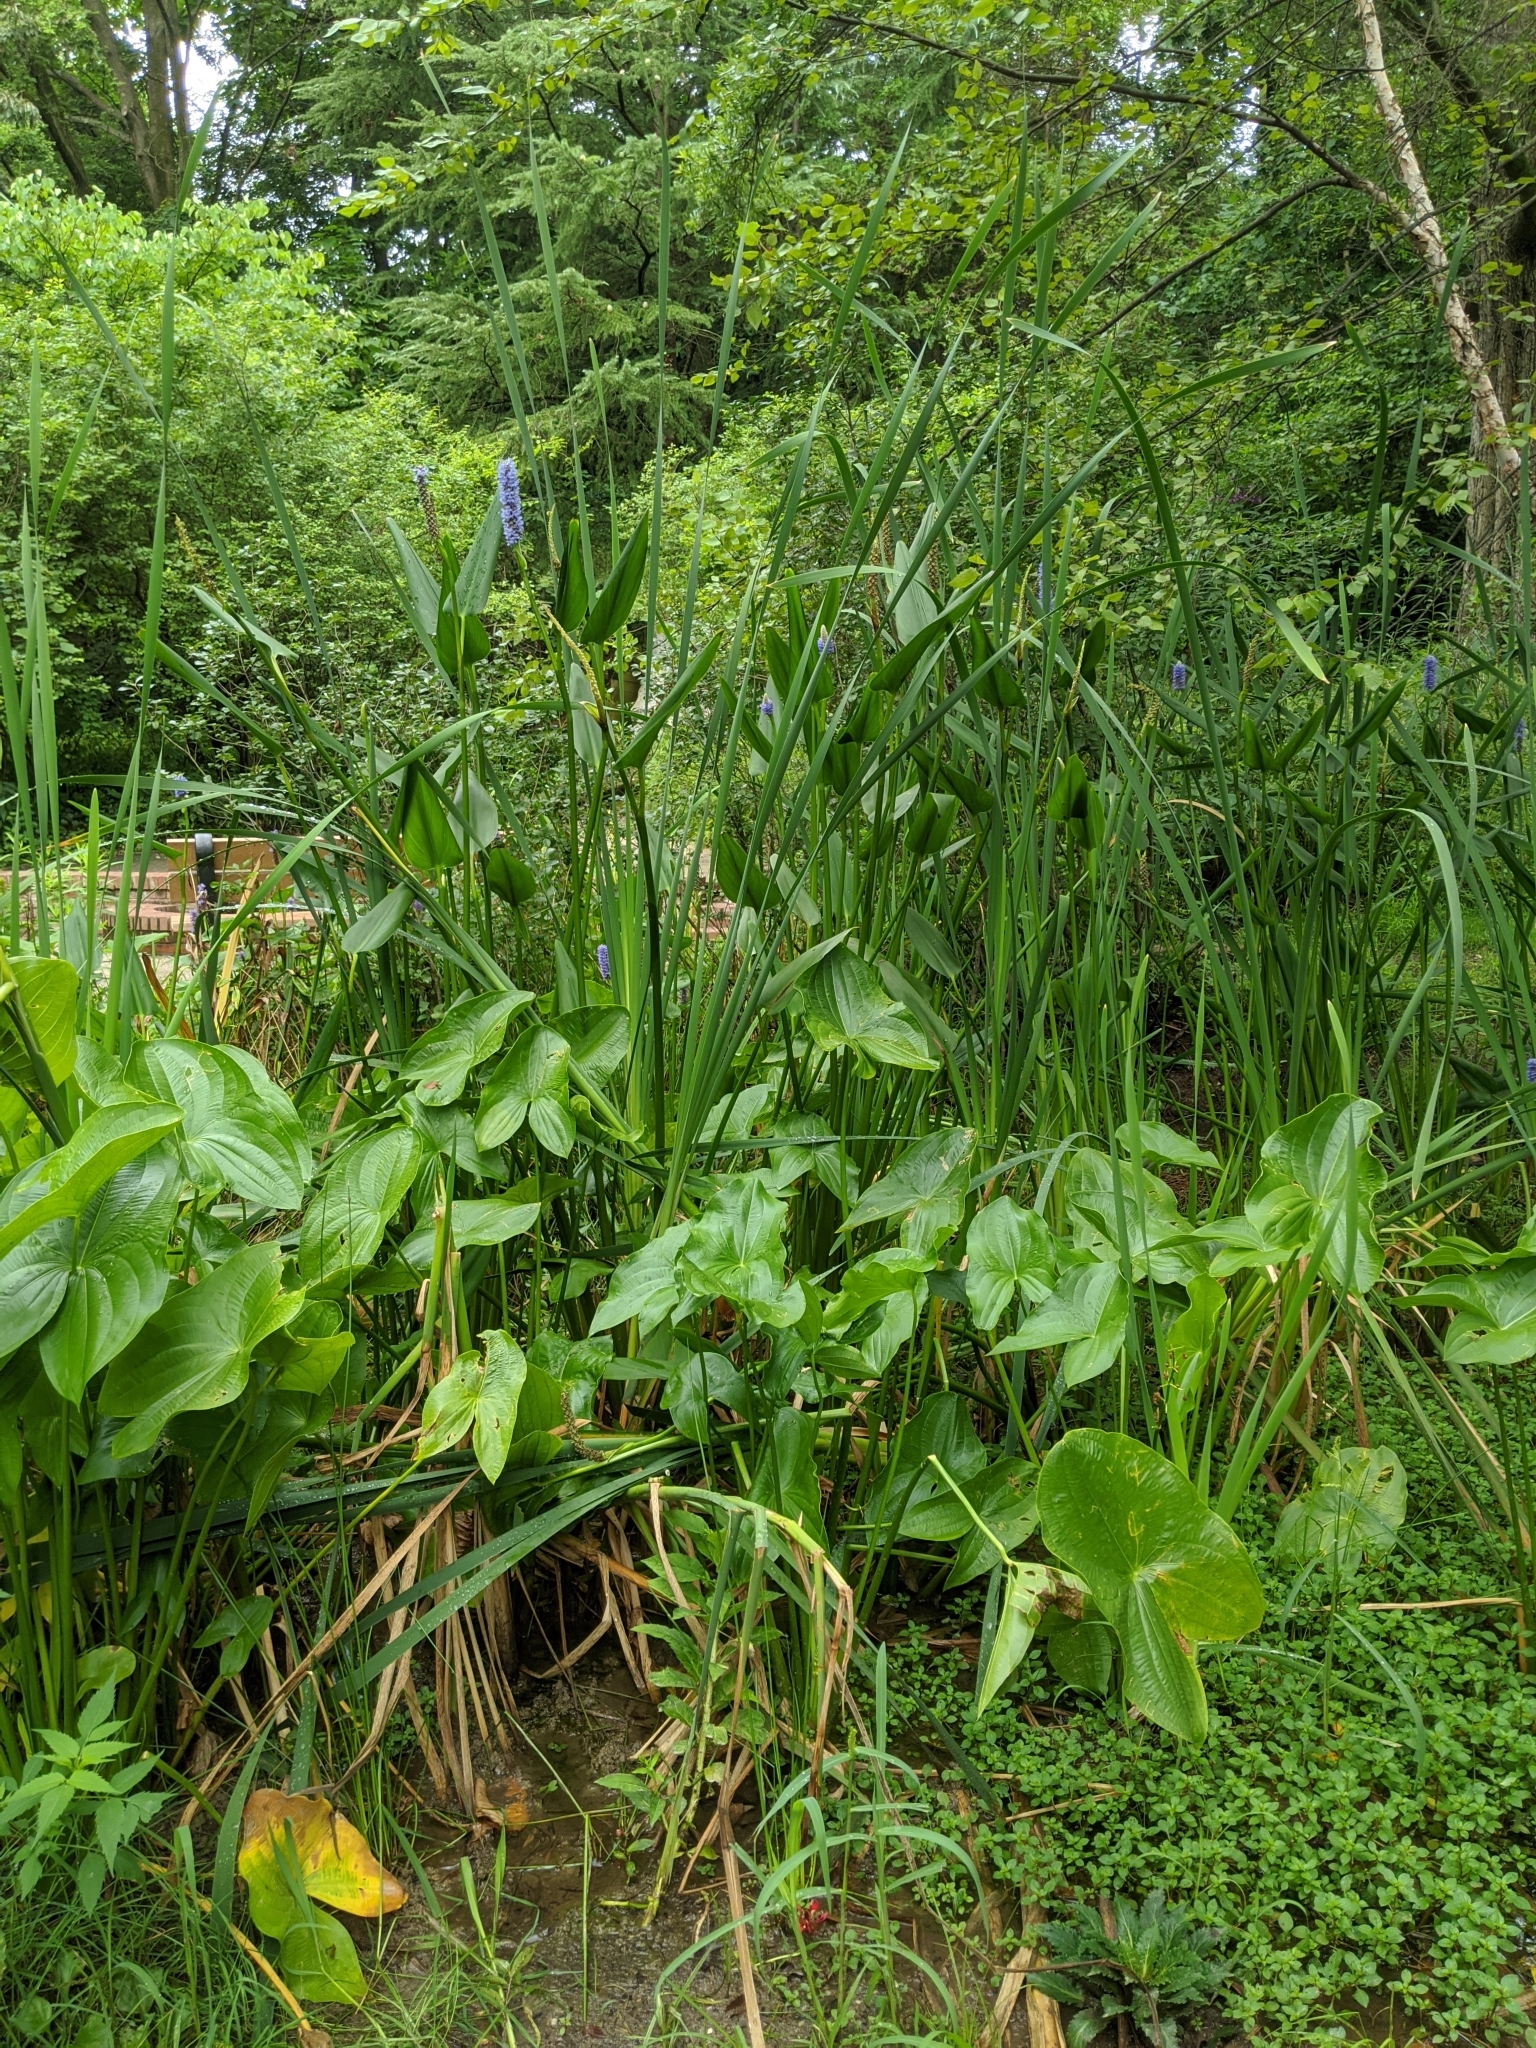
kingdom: Plantae
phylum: Tracheophyta
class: Liliopsida
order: Commelinales
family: Pontederiaceae
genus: Pontederia
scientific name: Pontederia cordata
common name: Pickerelweed
